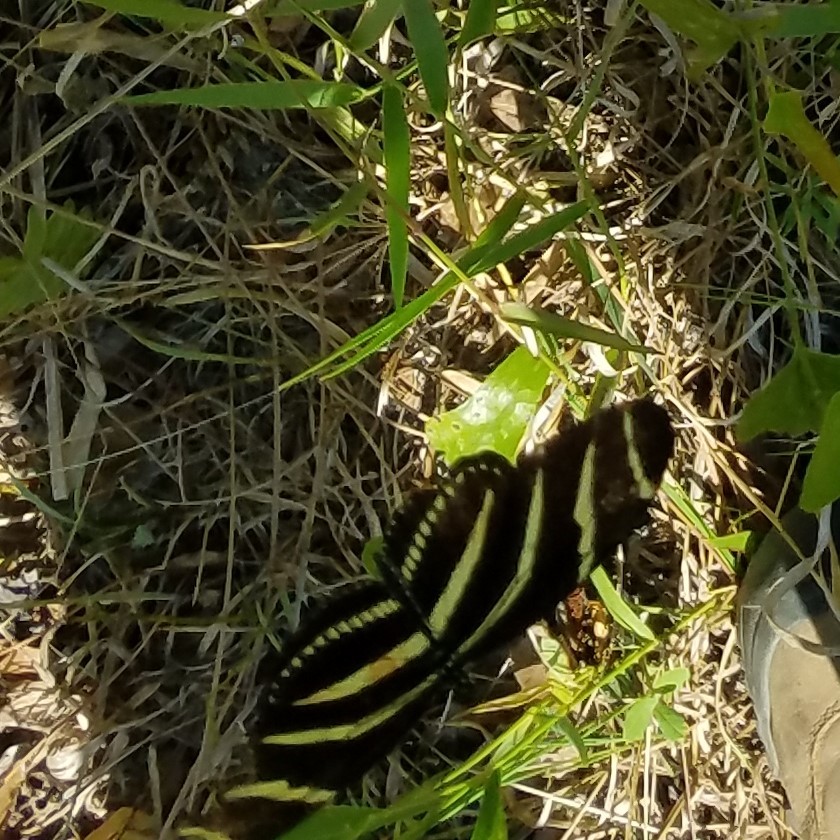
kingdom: Animalia
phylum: Arthropoda
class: Insecta
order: Lepidoptera
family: Nymphalidae
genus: Heliconius
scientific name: Heliconius charithonia
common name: Zebra long wing
